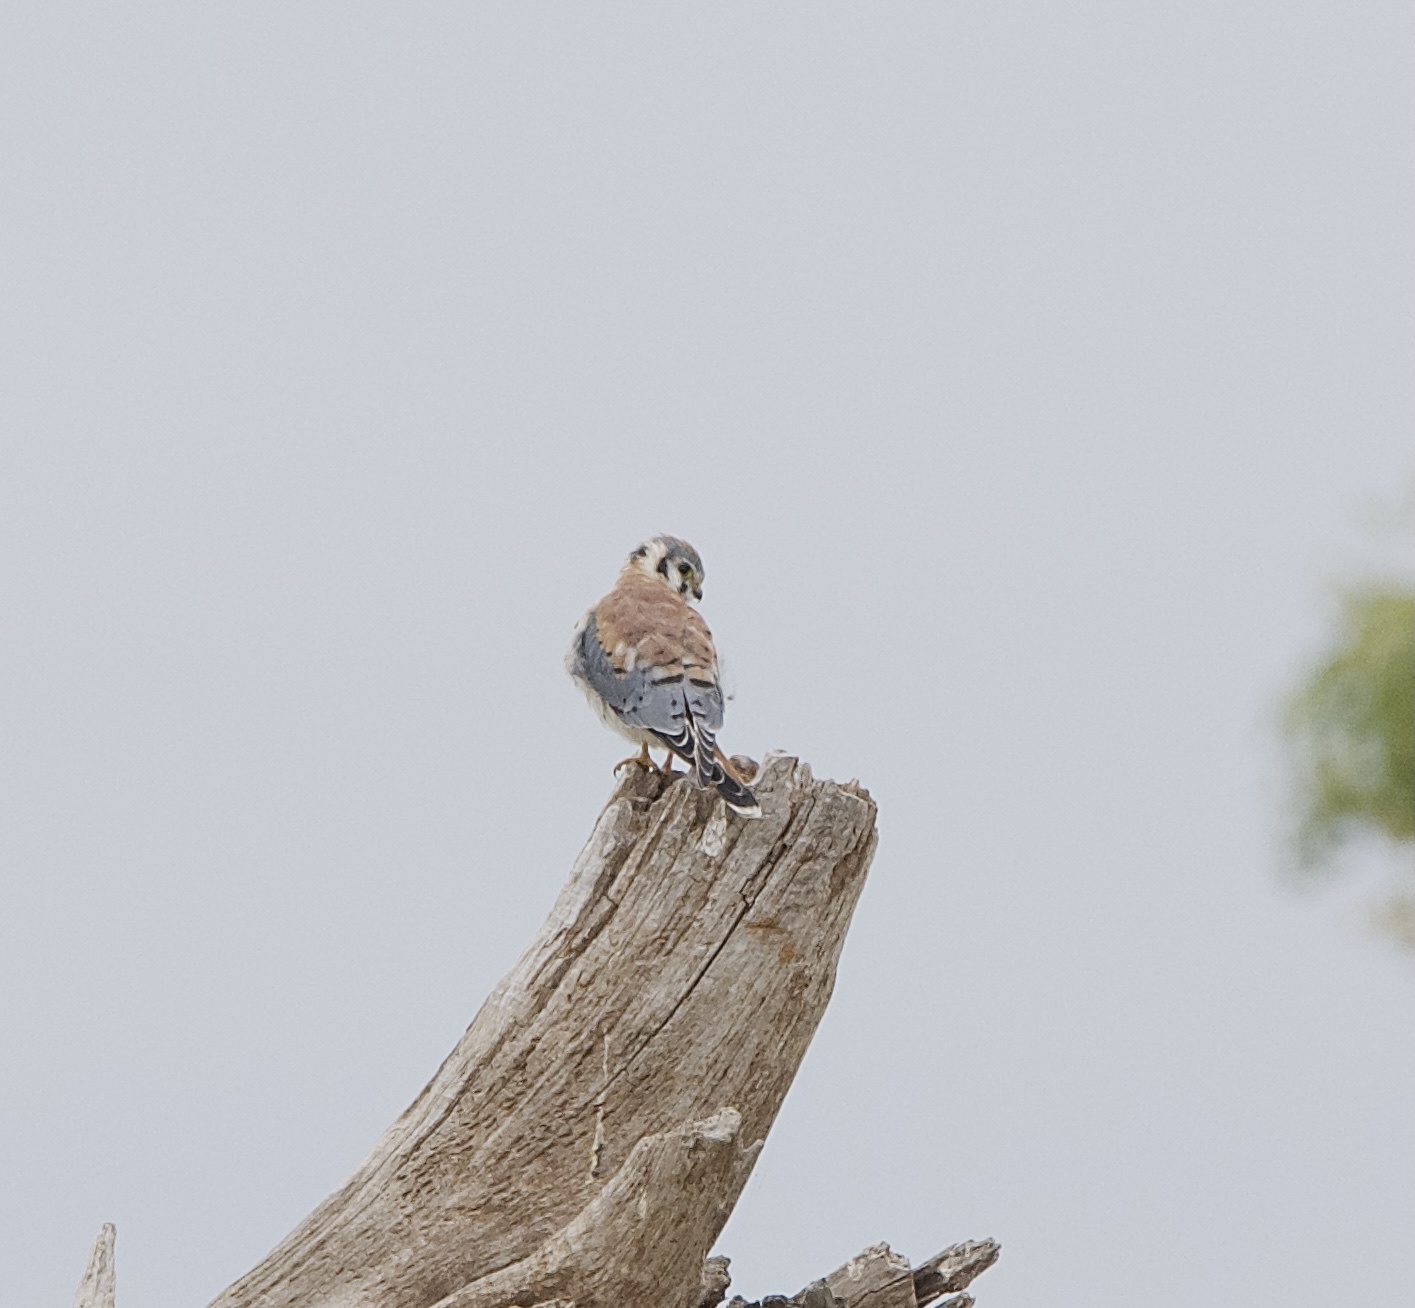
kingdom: Animalia
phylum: Chordata
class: Aves
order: Falconiformes
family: Falconidae
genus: Falco
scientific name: Falco sparverius
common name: American kestrel
